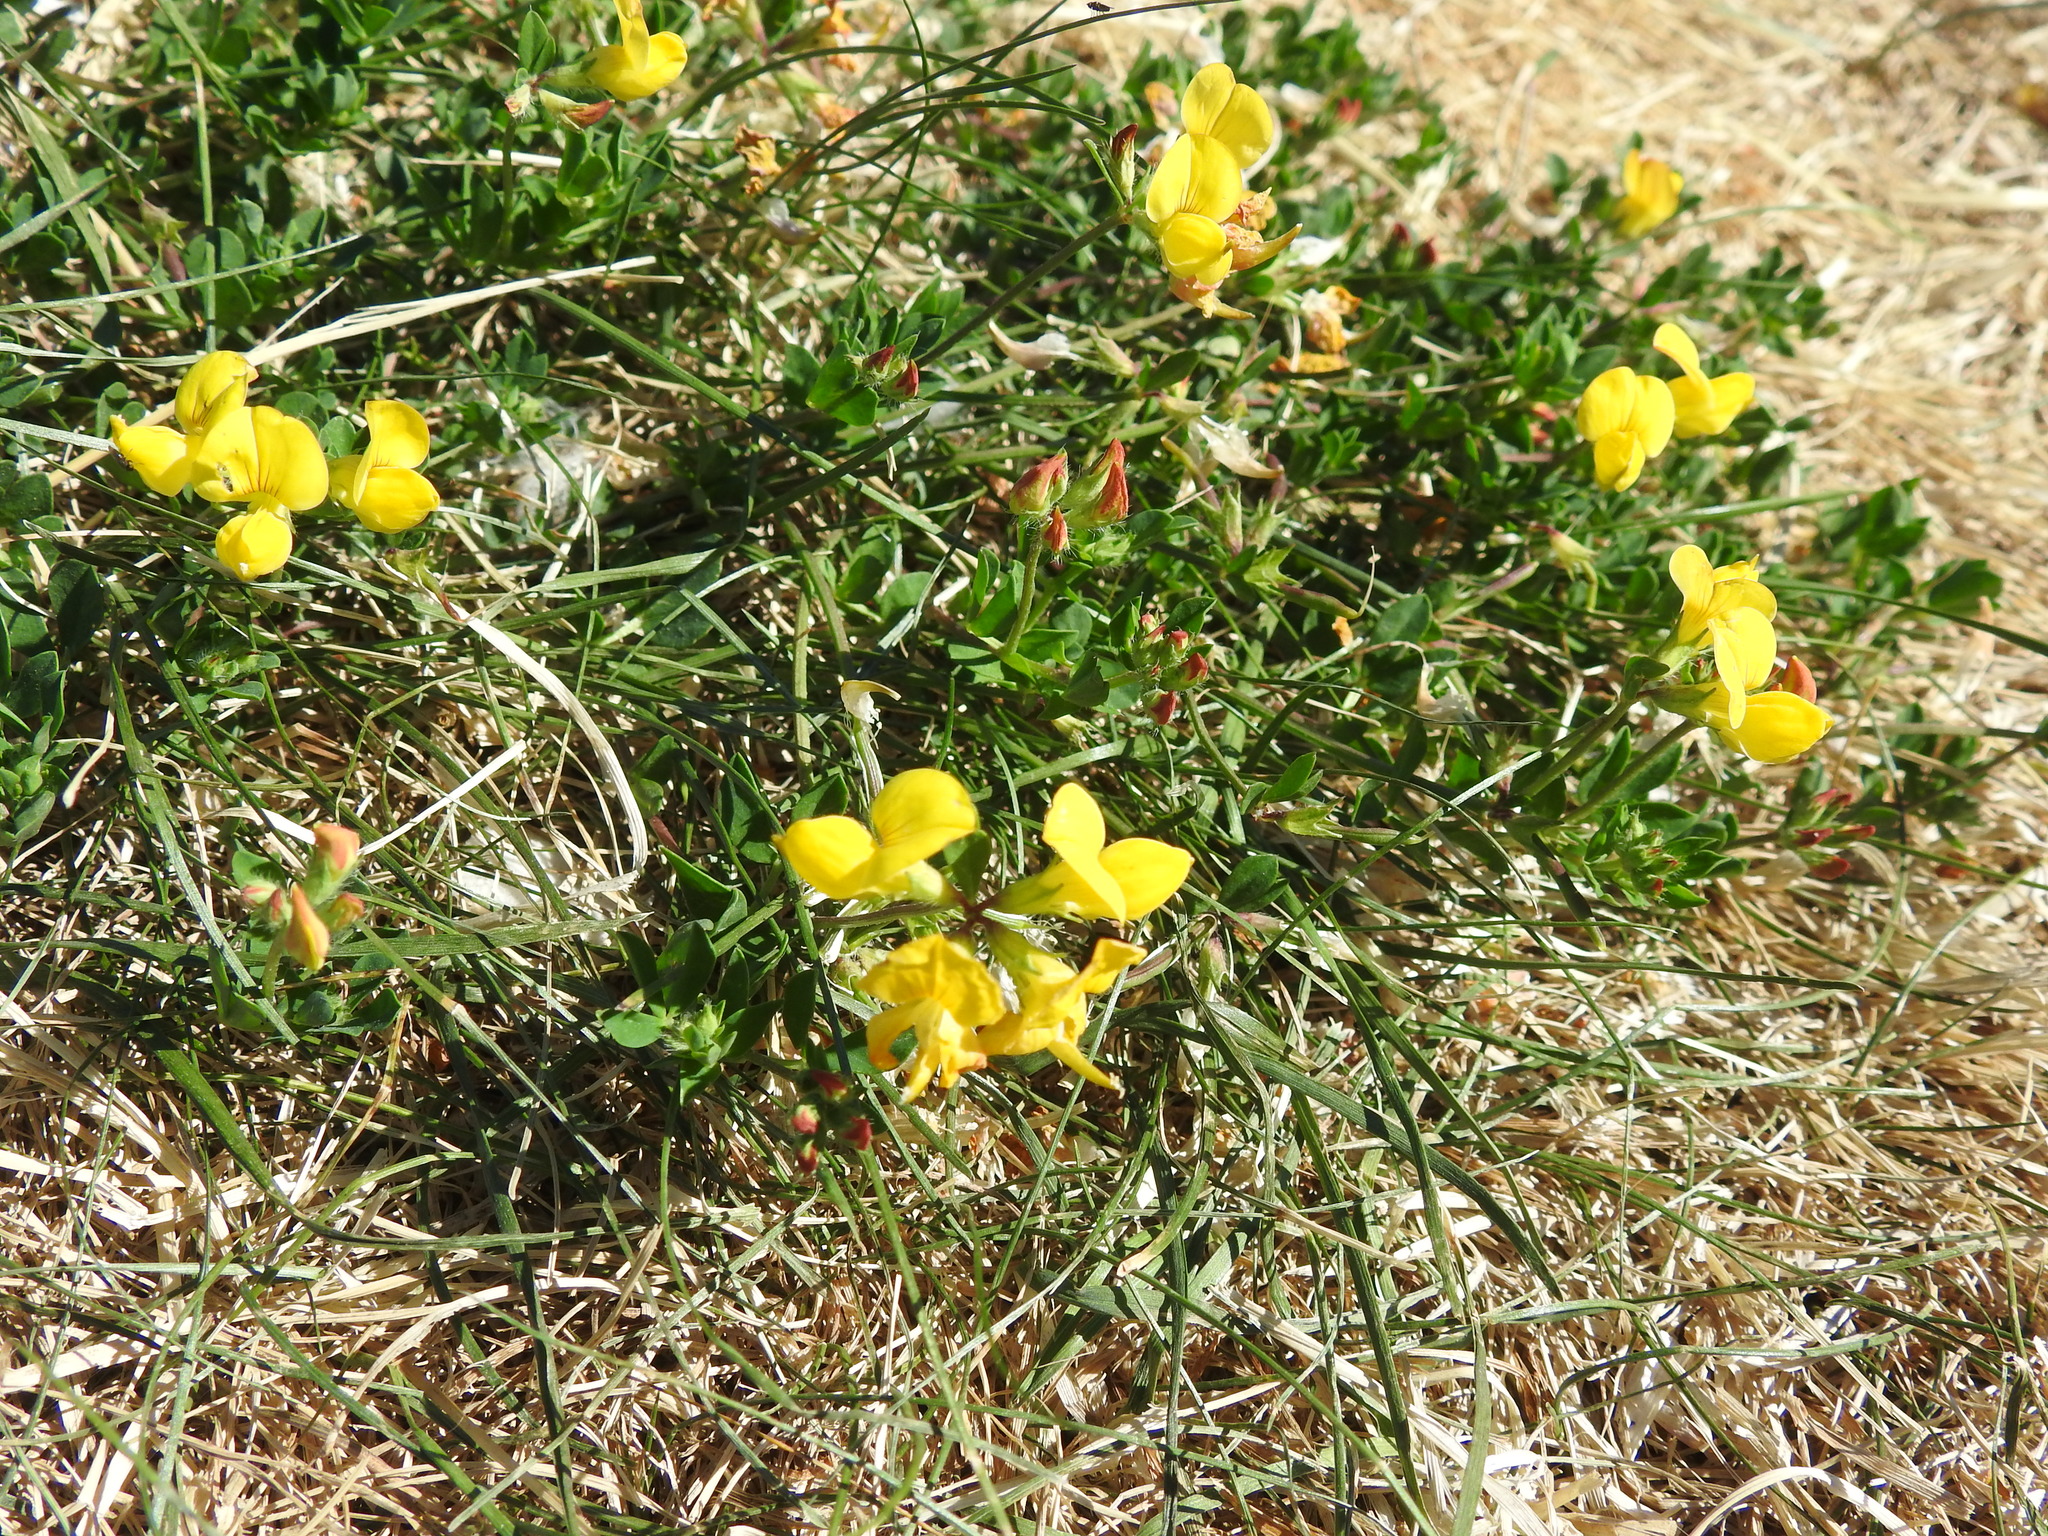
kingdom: Plantae
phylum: Tracheophyta
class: Magnoliopsida
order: Fabales
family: Fabaceae
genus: Lotus
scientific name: Lotus corniculatus
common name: Common bird's-foot-trefoil
